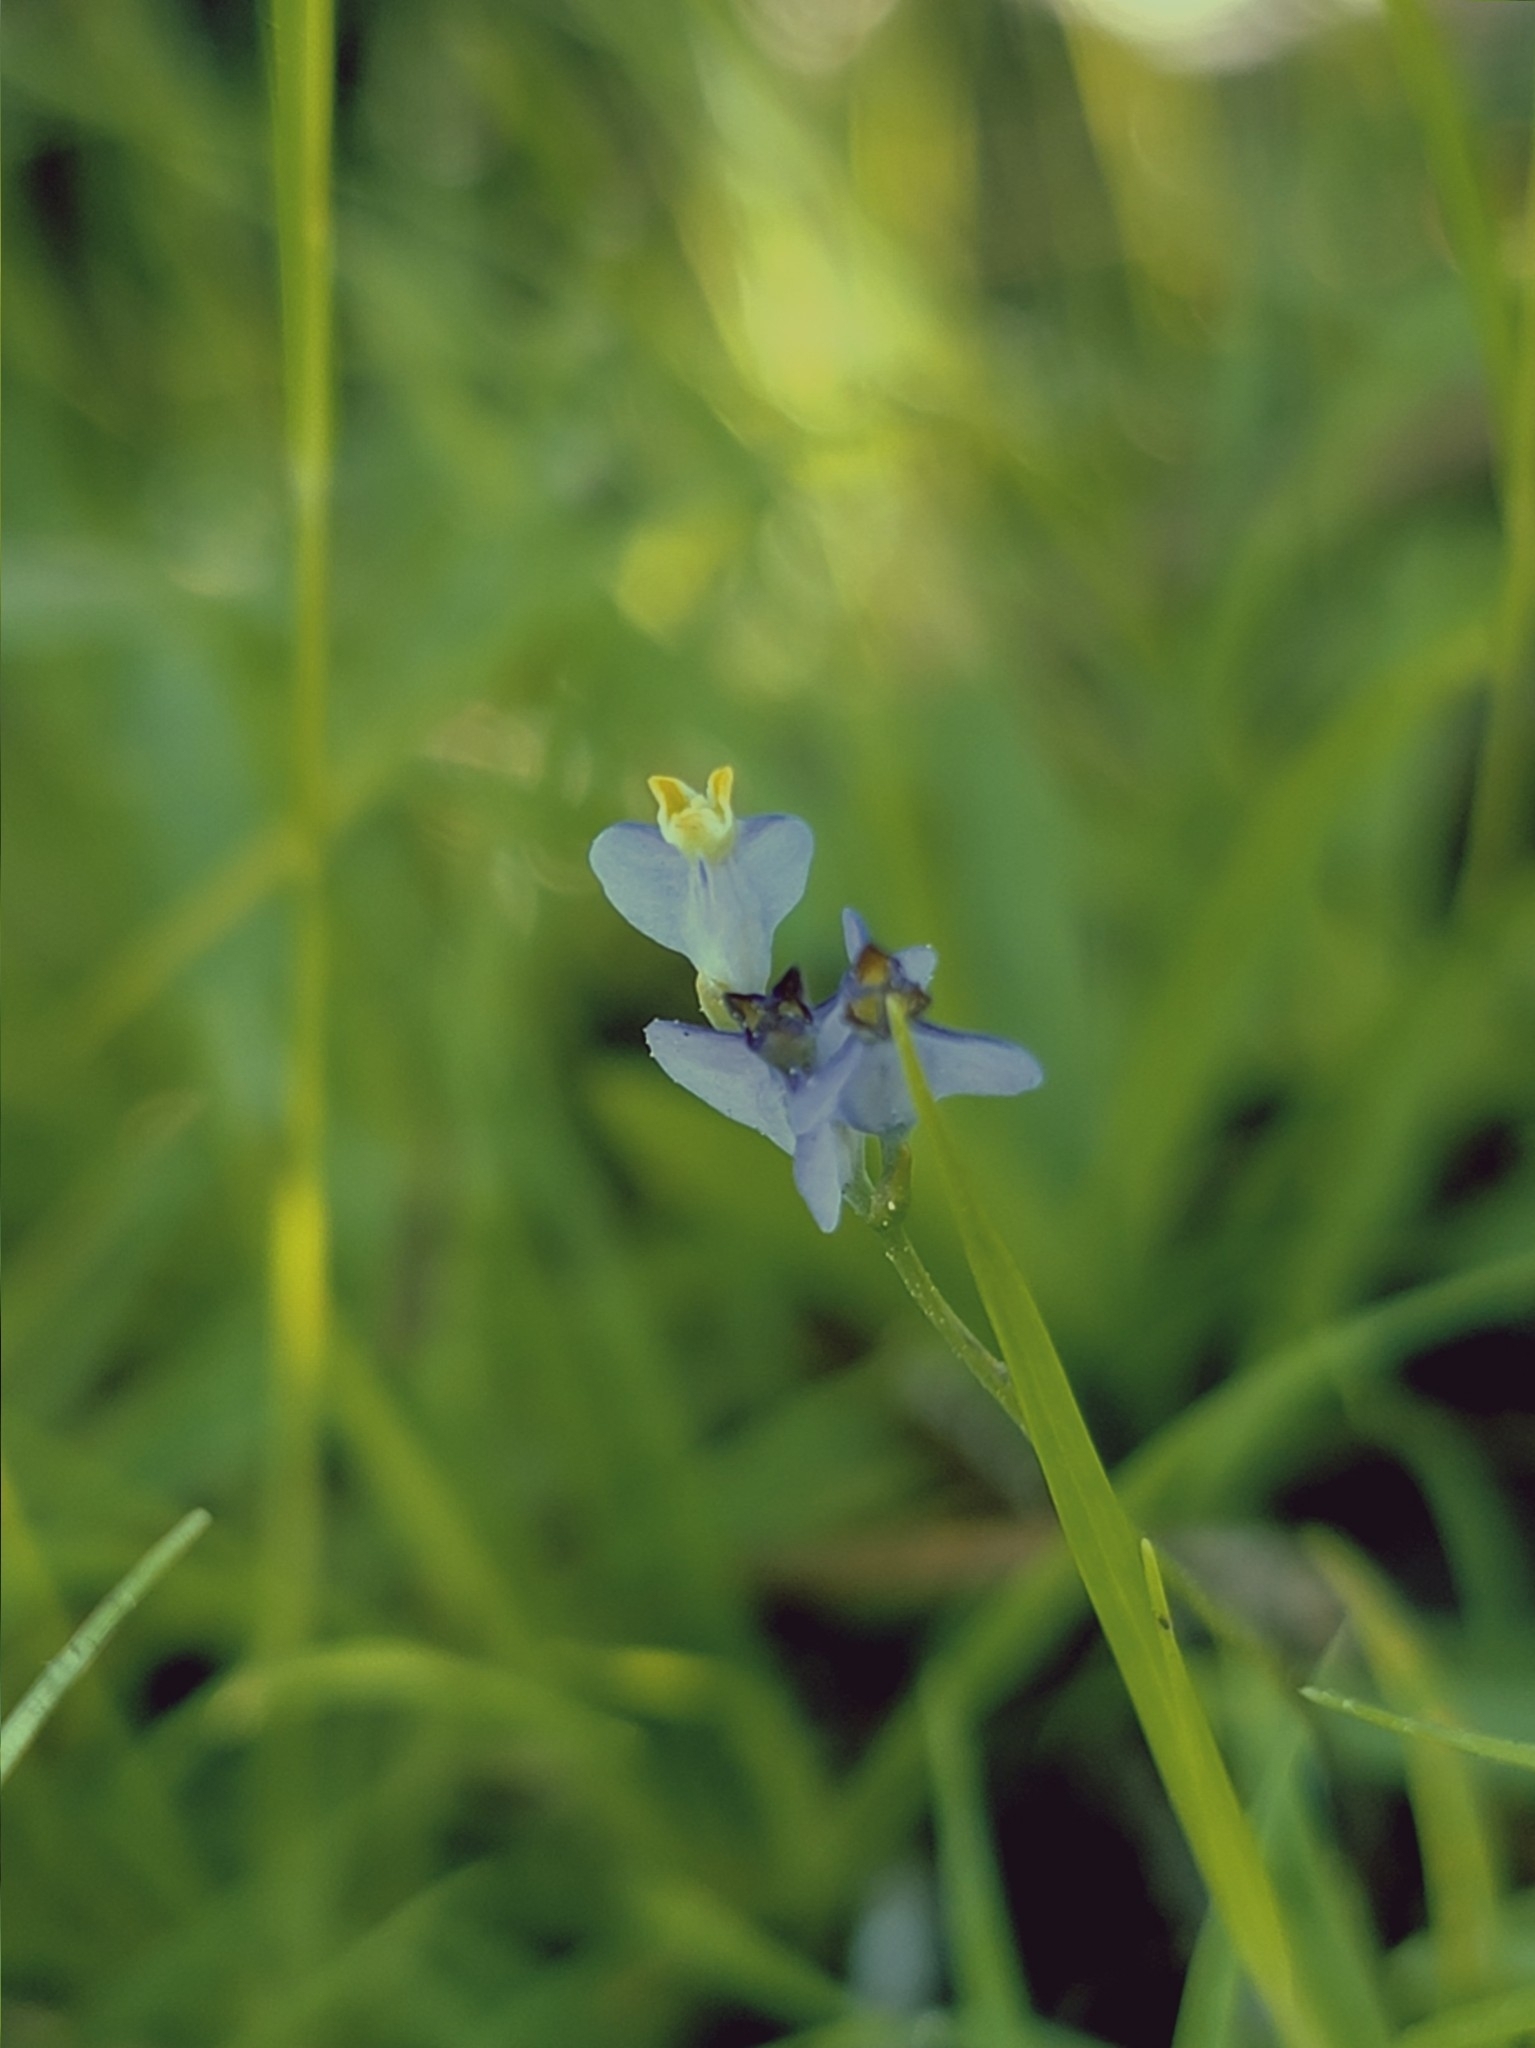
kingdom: Plantae
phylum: Tracheophyta
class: Liliopsida
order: Dioscoreales
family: Burmanniaceae
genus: Burmannia
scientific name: Burmannia biflora
